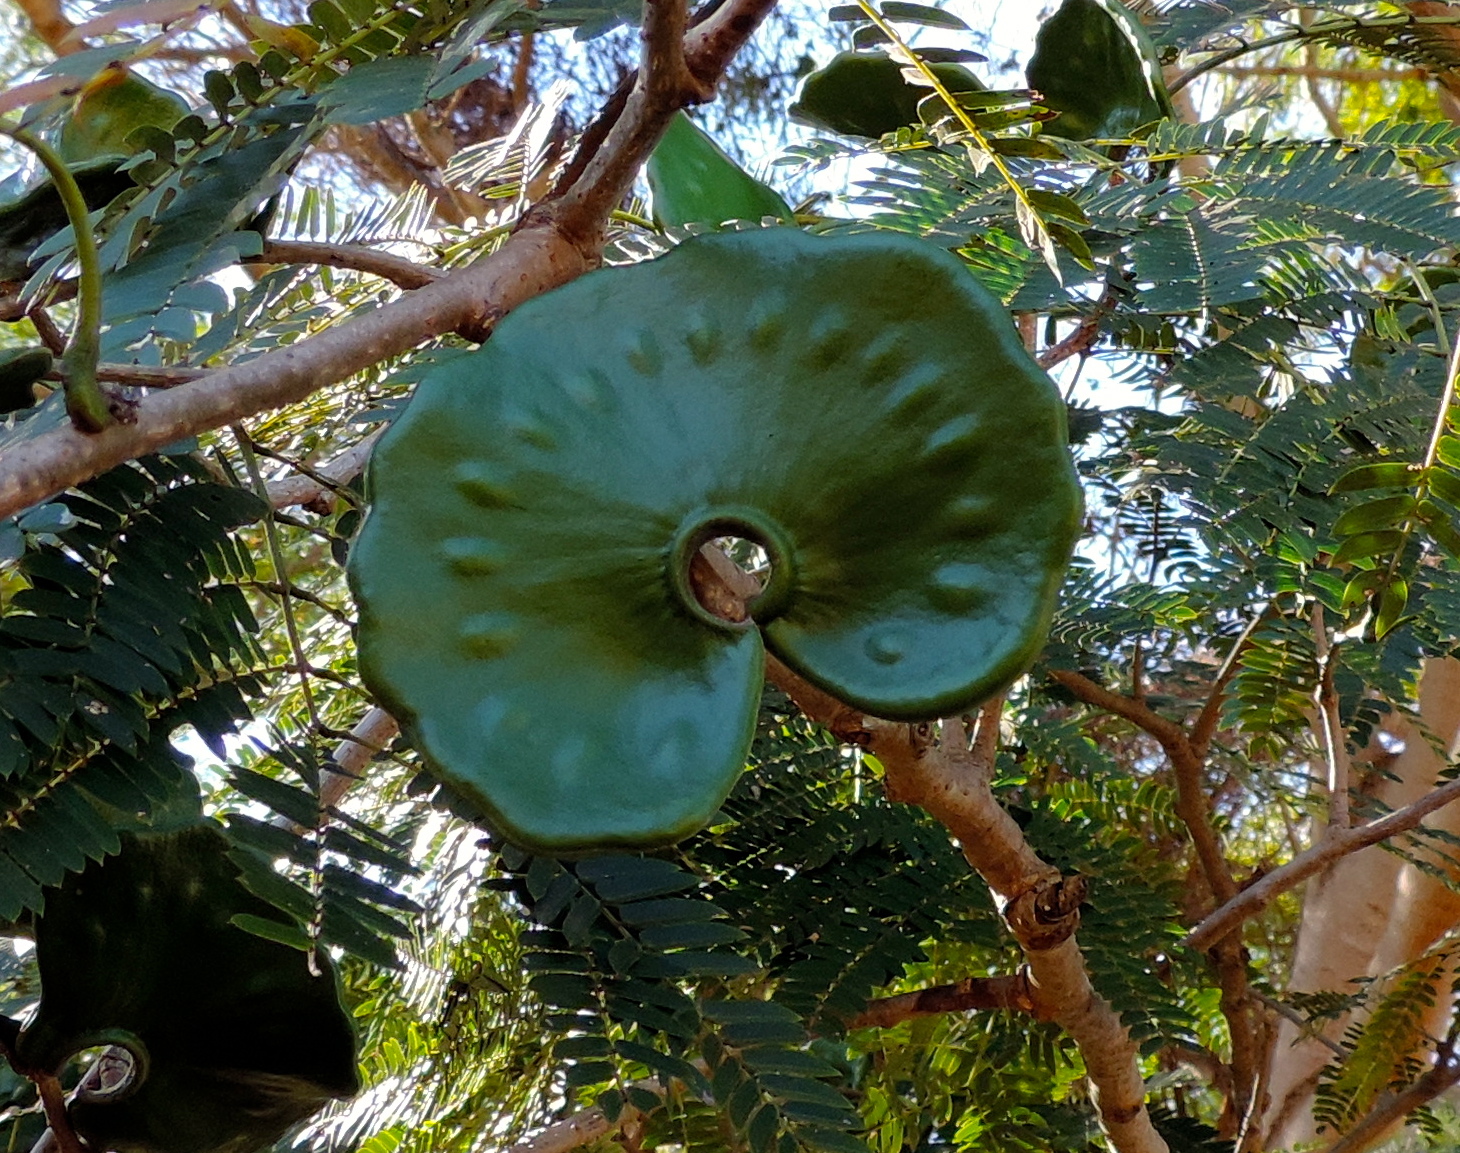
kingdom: Plantae
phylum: Tracheophyta
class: Magnoliopsida
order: Fabales
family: Fabaceae
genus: Enterolobium
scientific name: Enterolobium cyclocarpum
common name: Ear tree
